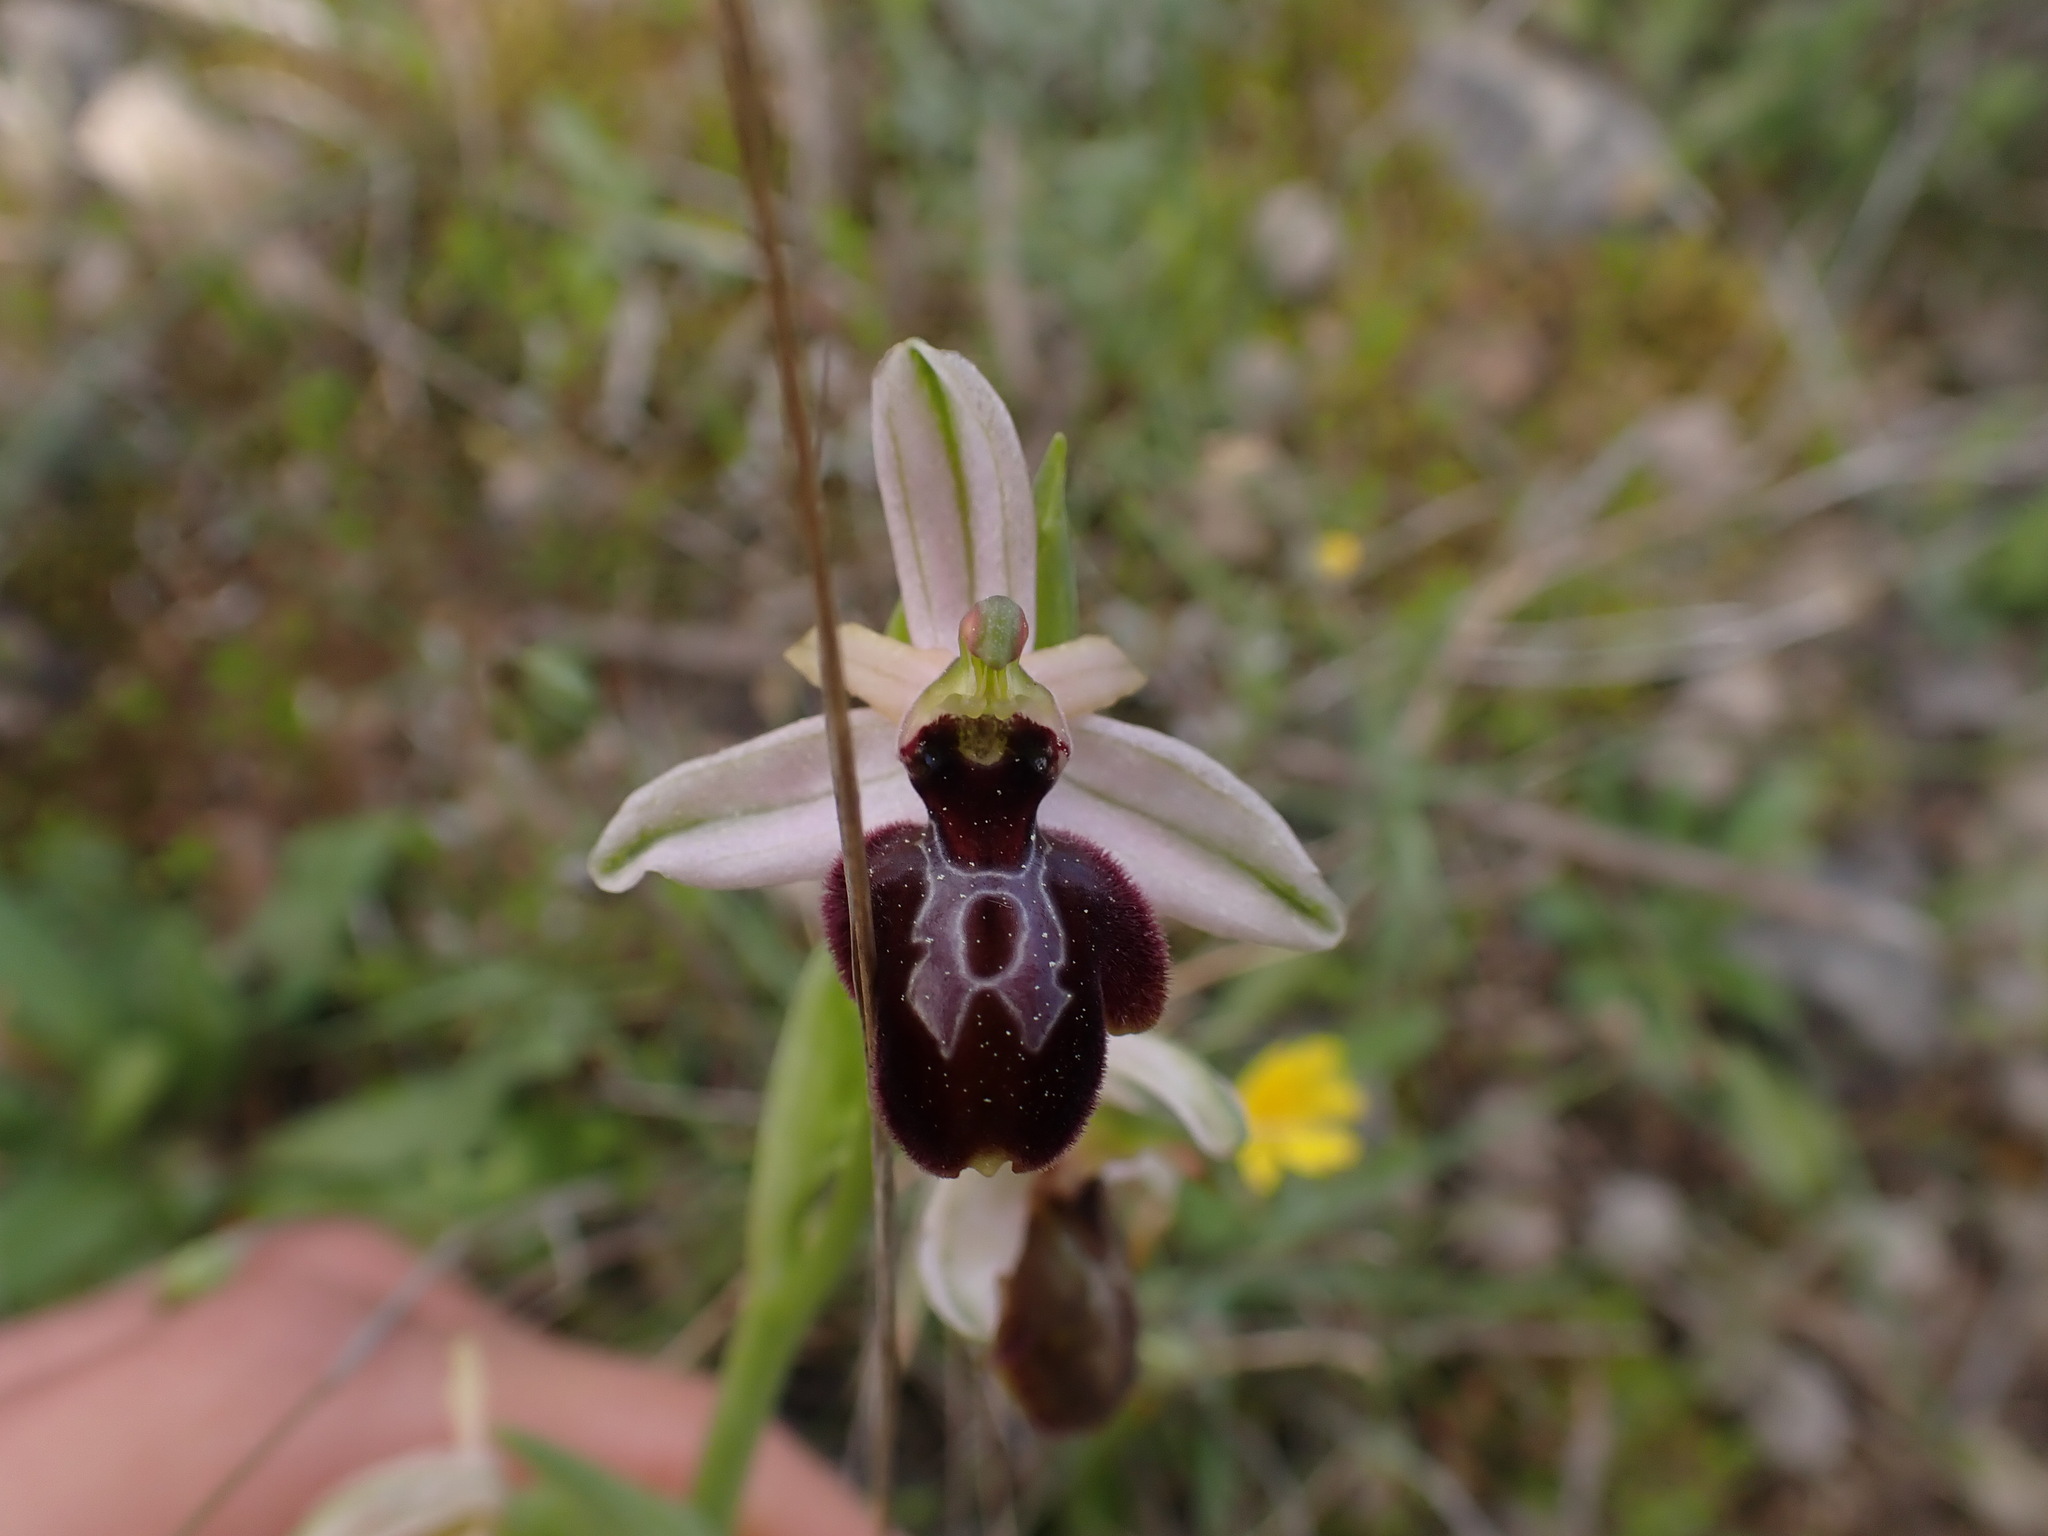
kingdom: Plantae
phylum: Tracheophyta
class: Liliopsida
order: Asparagales
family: Orchidaceae
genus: Ophrys
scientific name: Ophrys sphegodes
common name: Early spider-orchid
